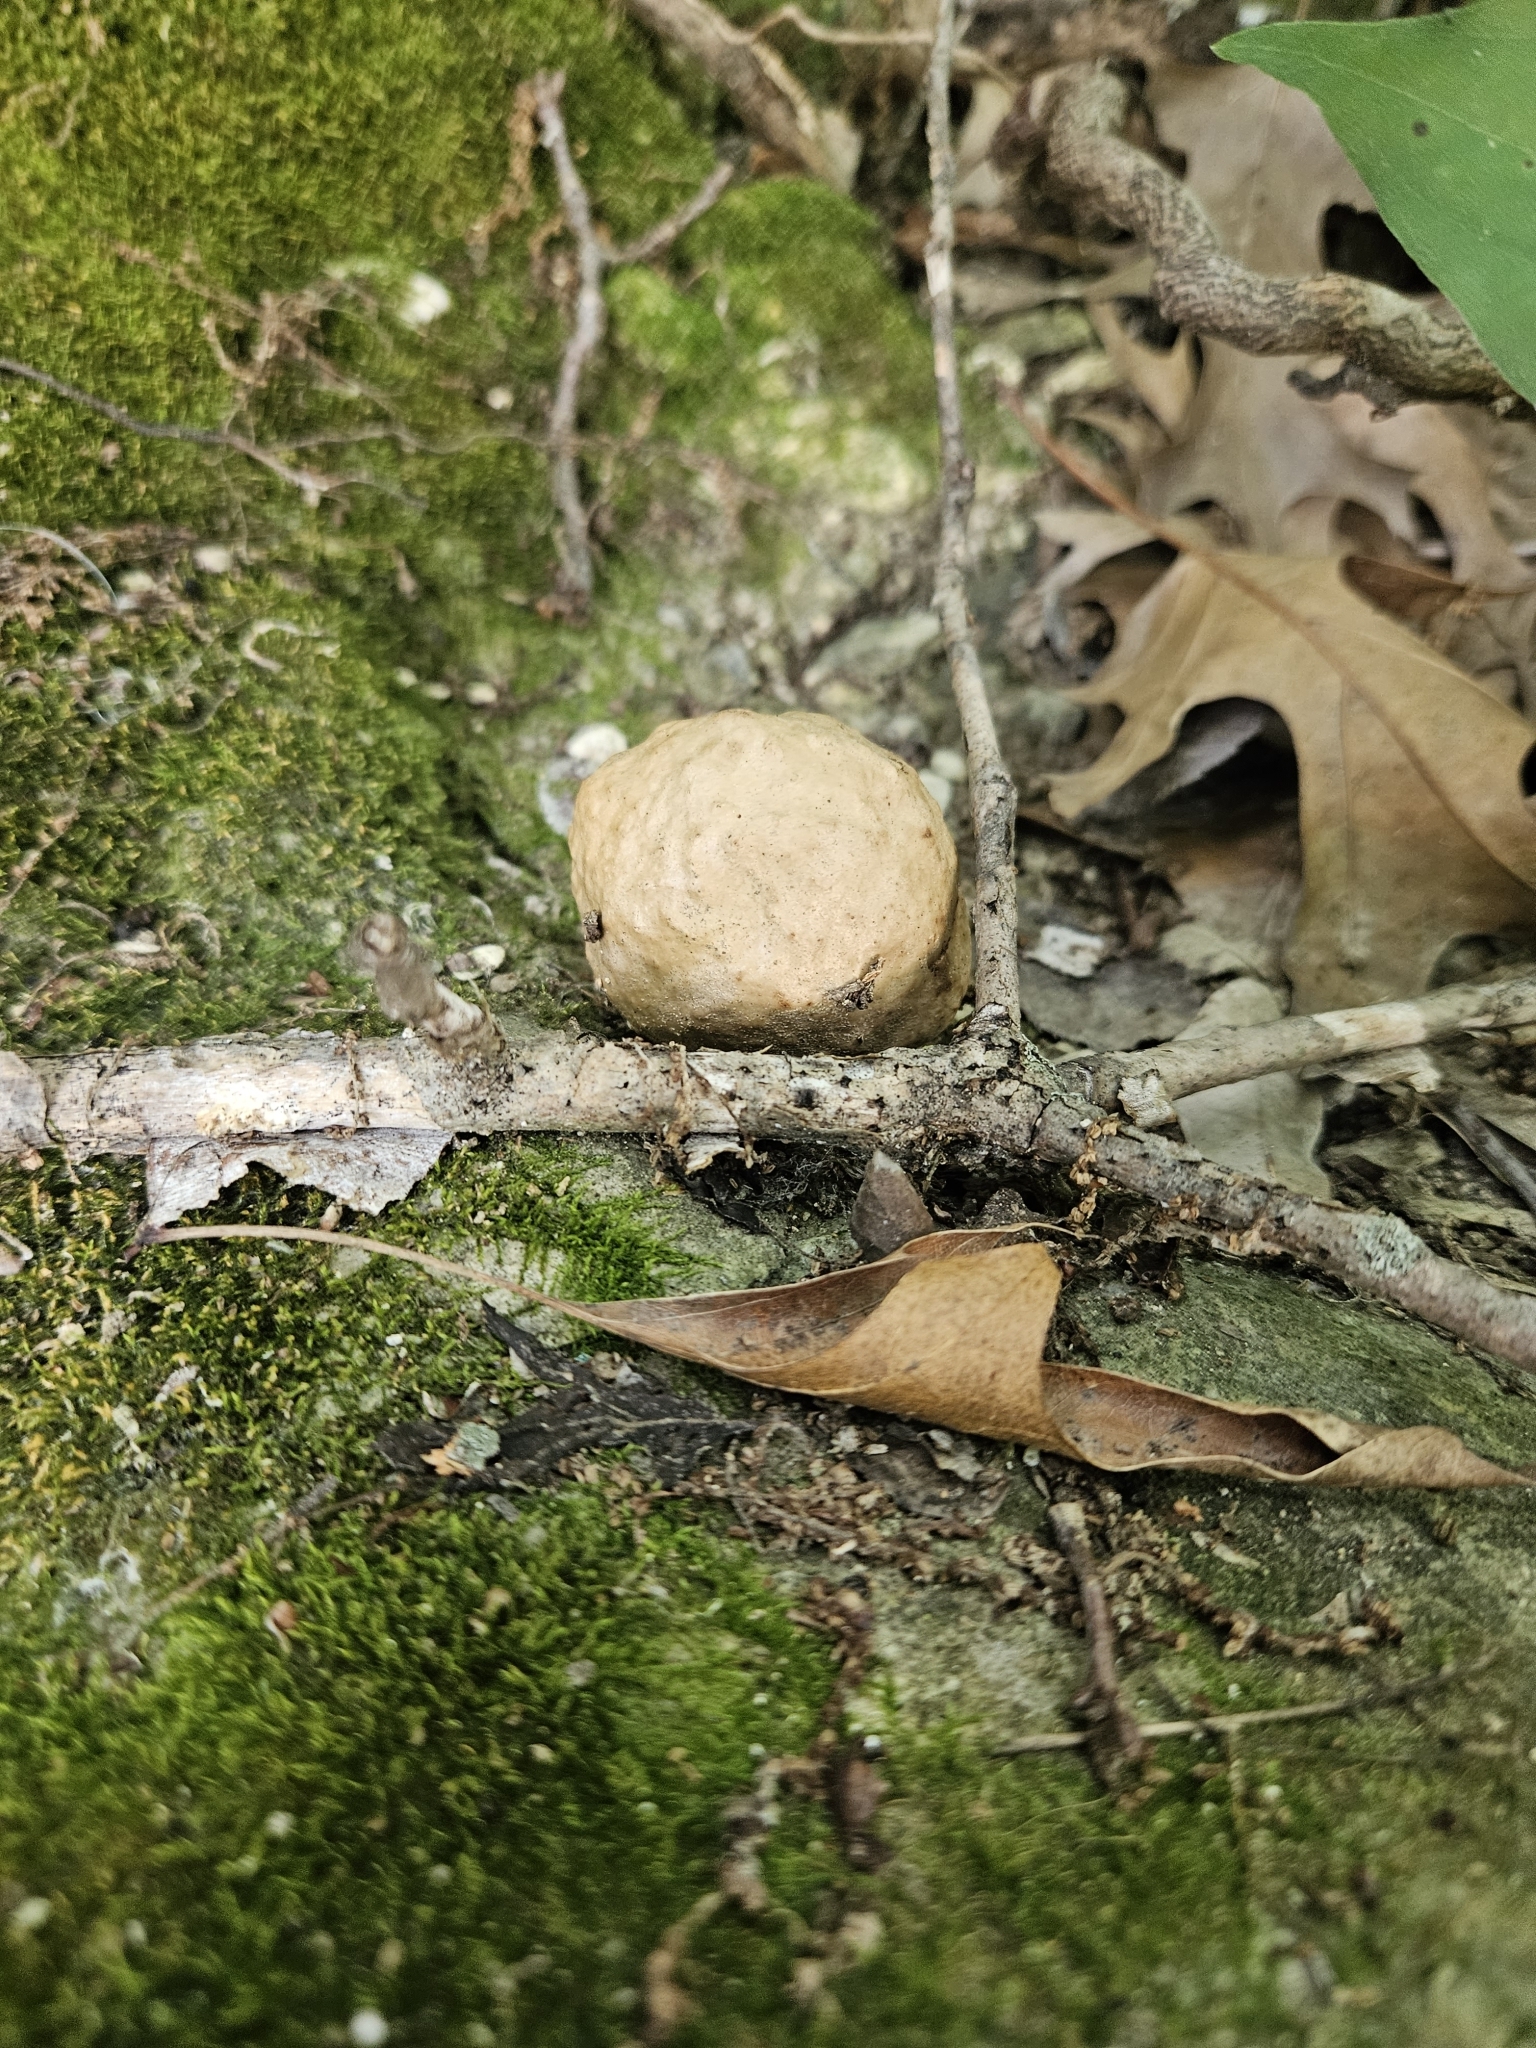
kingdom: Animalia
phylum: Arthropoda
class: Insecta
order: Hymenoptera
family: Cynipidae
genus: Amphibolips
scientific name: Amphibolips
